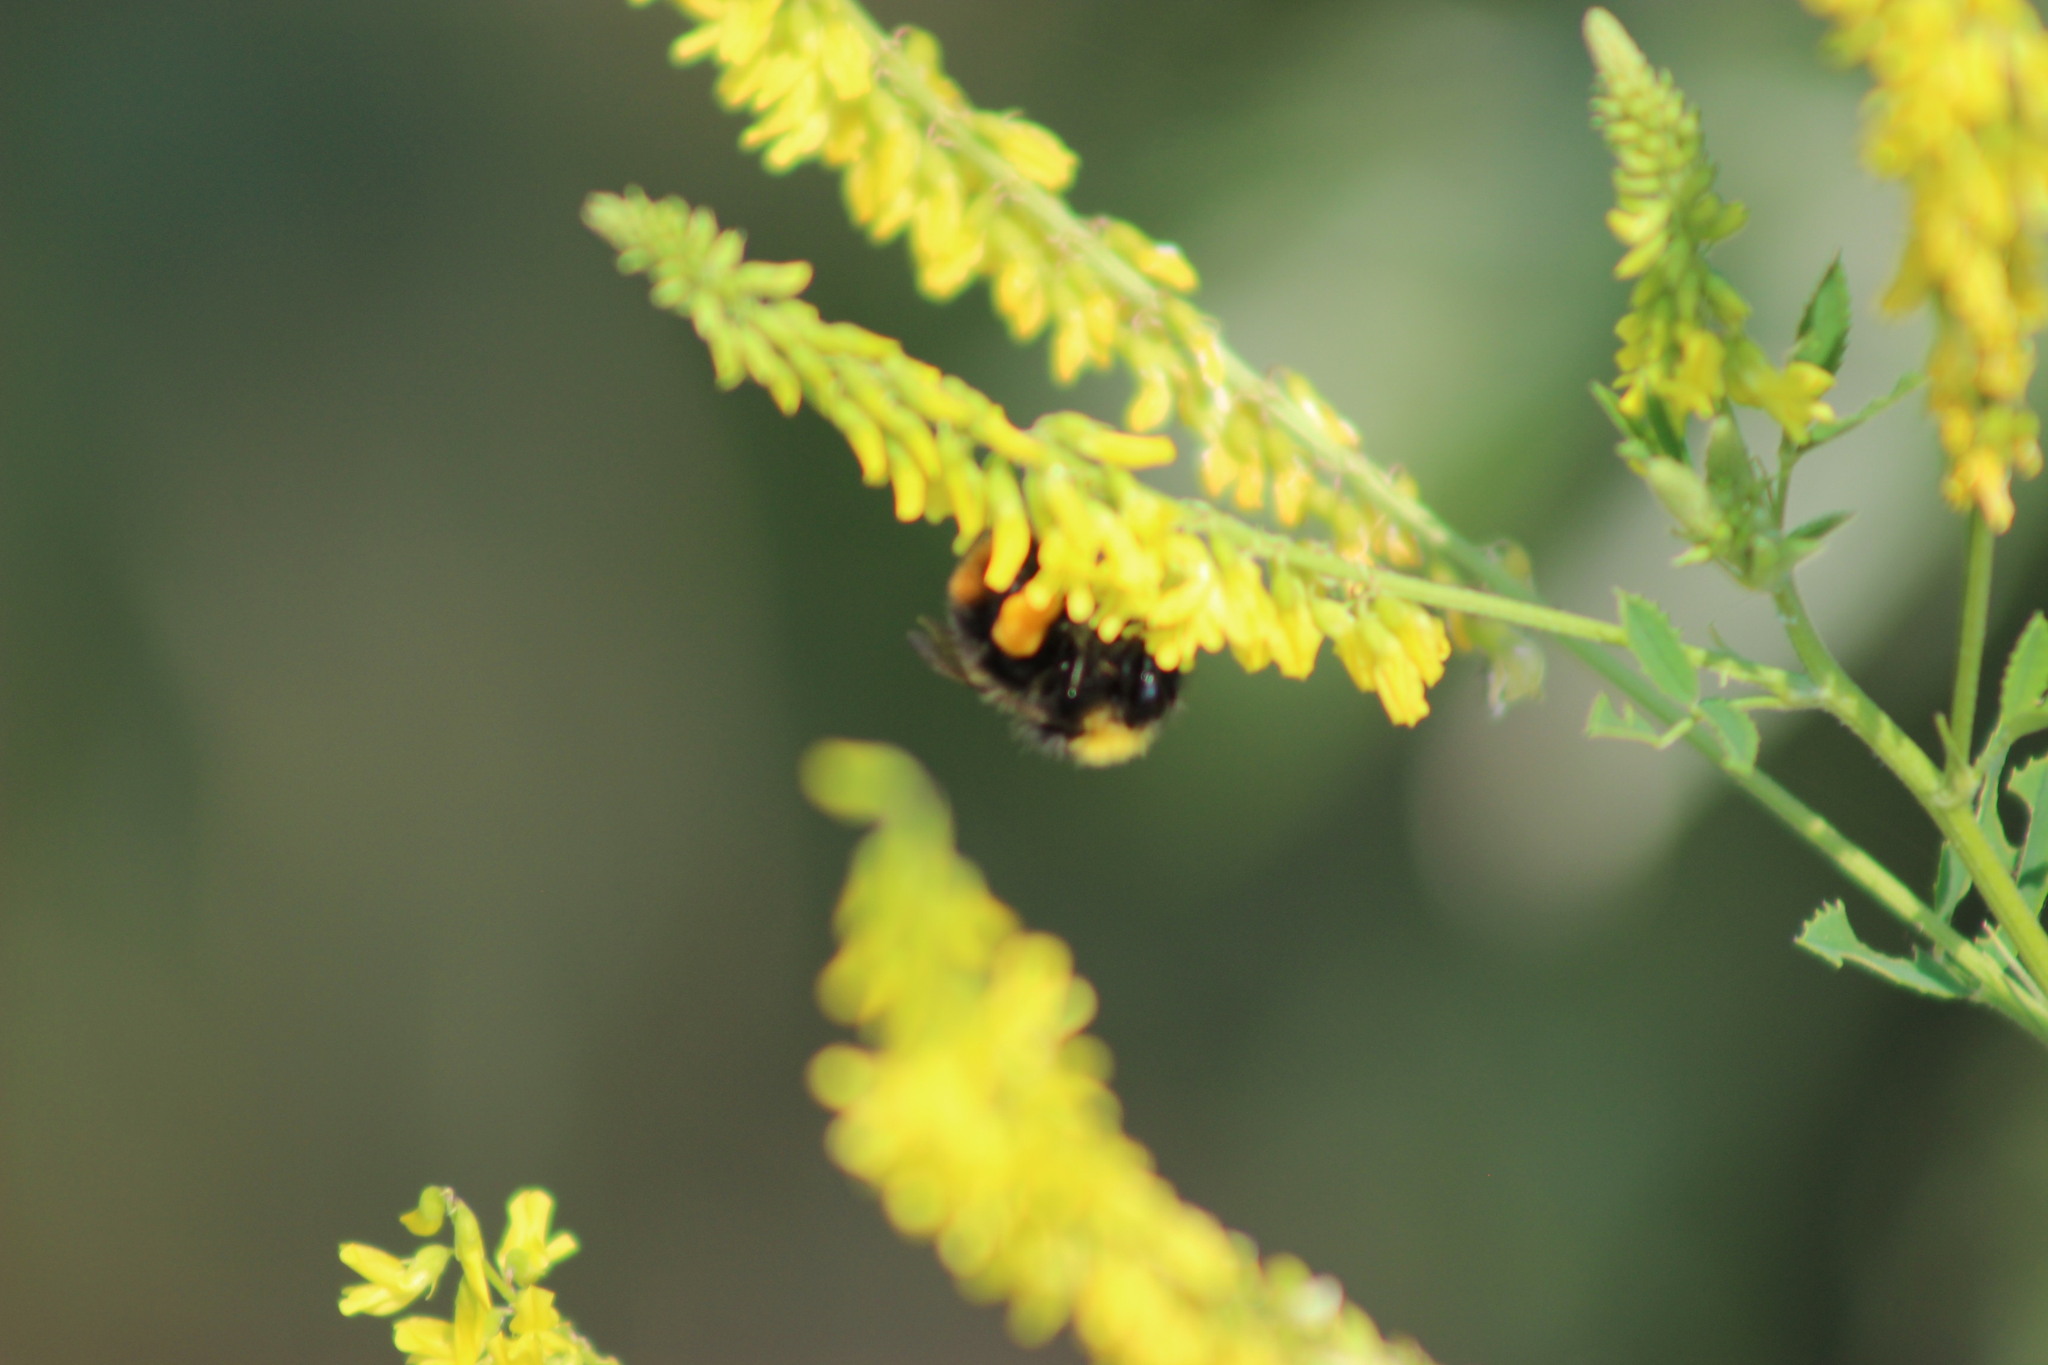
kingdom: Animalia
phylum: Arthropoda
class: Insecta
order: Hymenoptera
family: Apidae
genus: Bombus
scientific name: Bombus pratorum
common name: Early humble-bee
